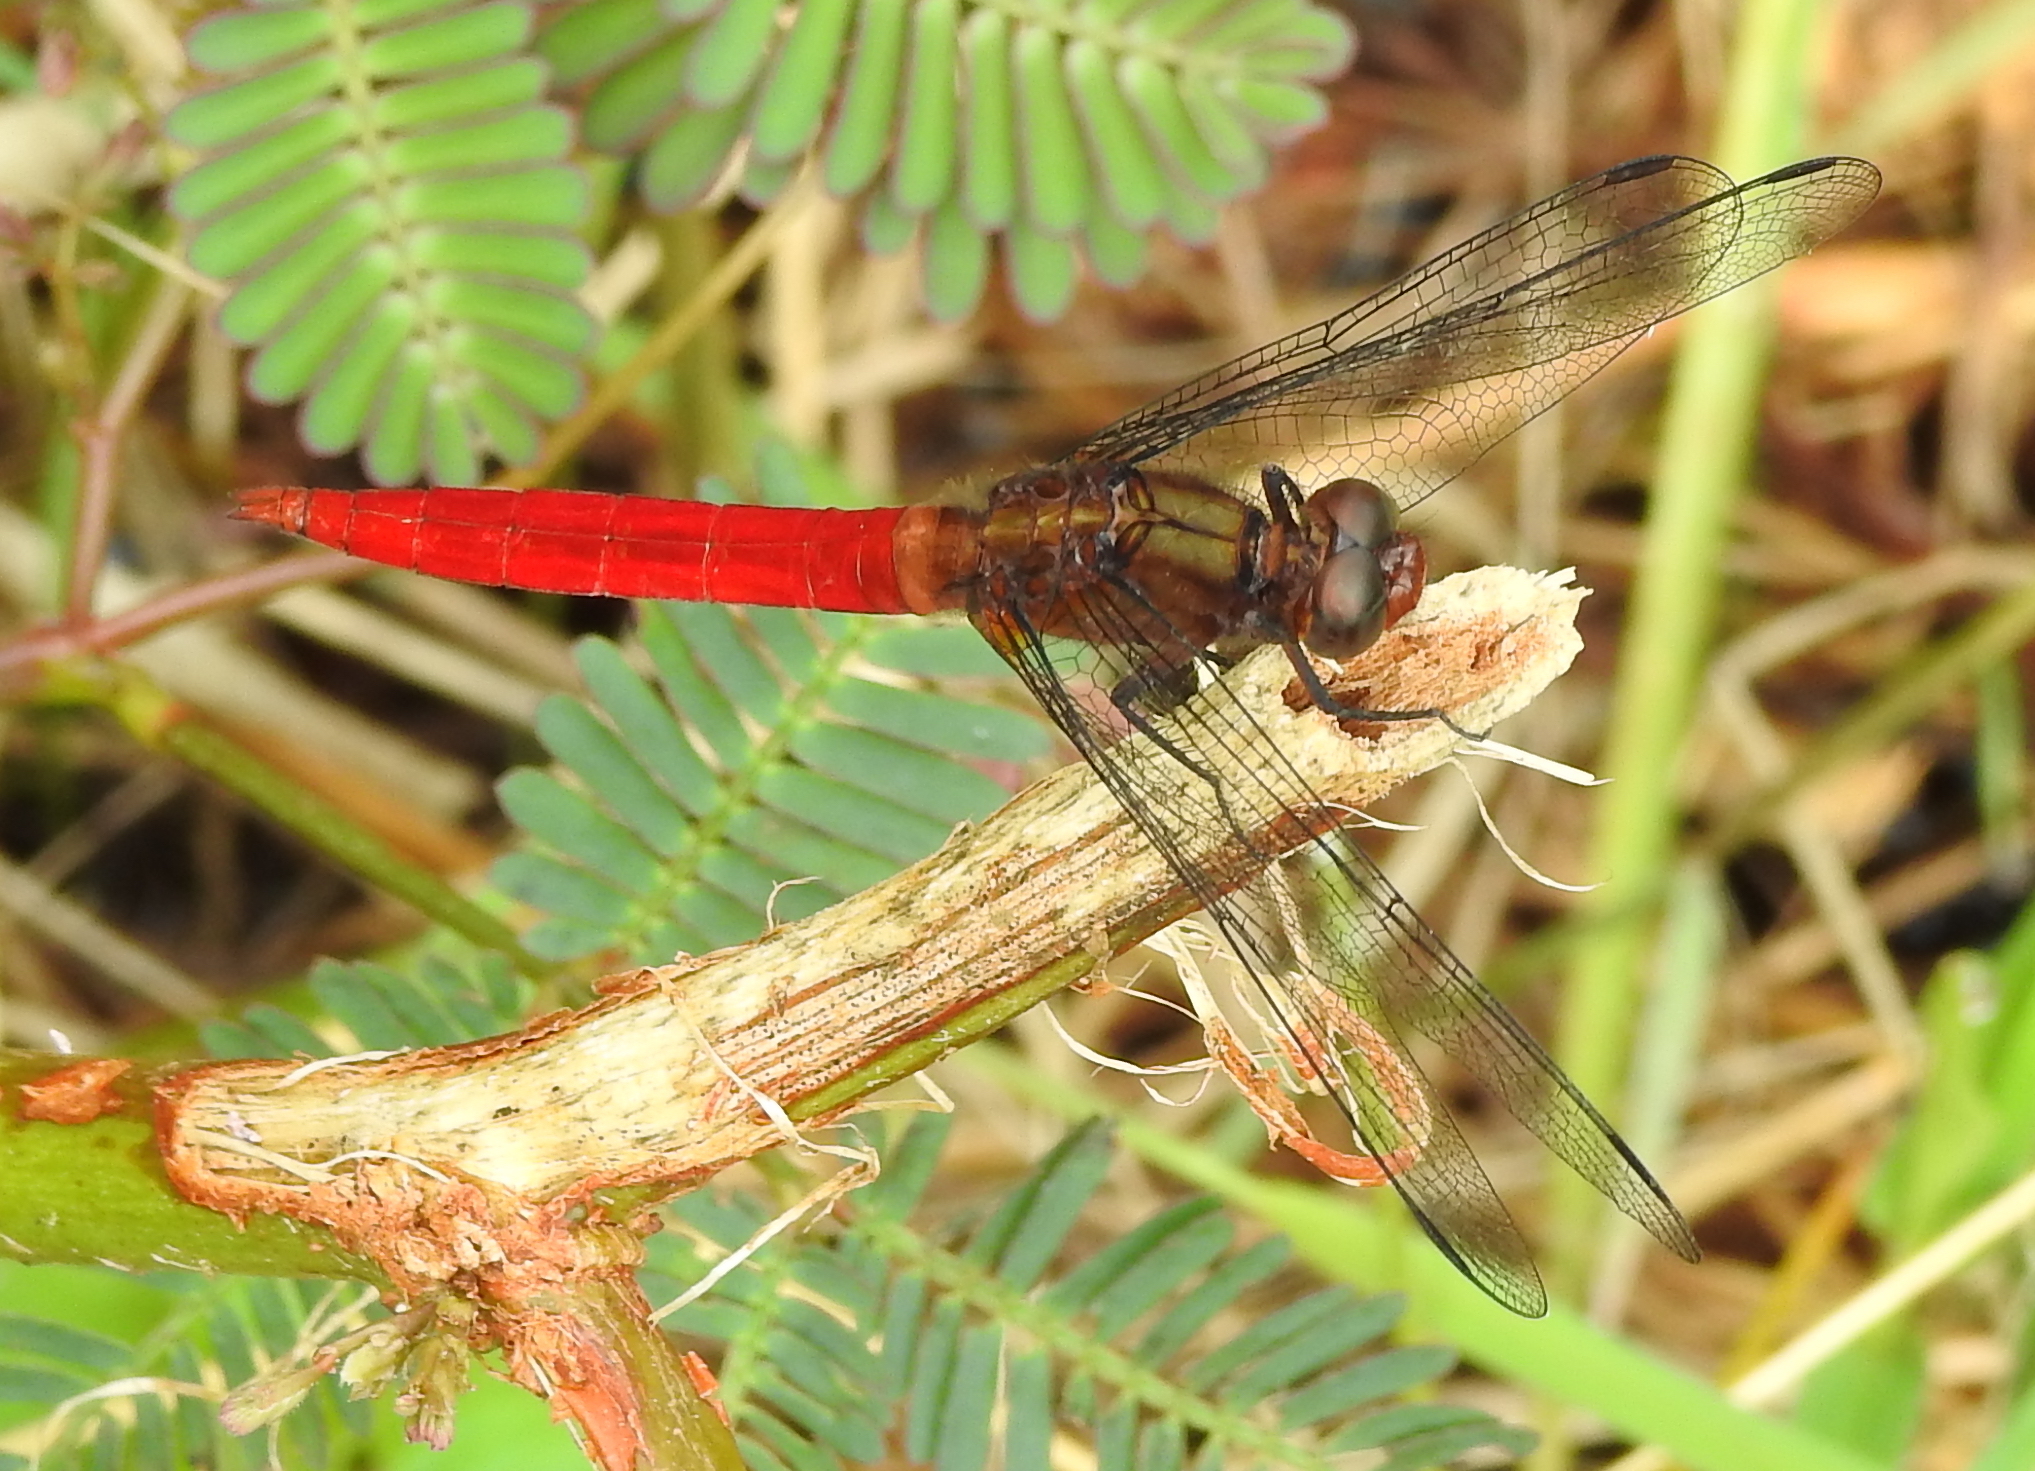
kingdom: Animalia
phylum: Arthropoda
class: Insecta
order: Odonata
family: Libellulidae
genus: Orthetrum
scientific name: Orthetrum chrysis
